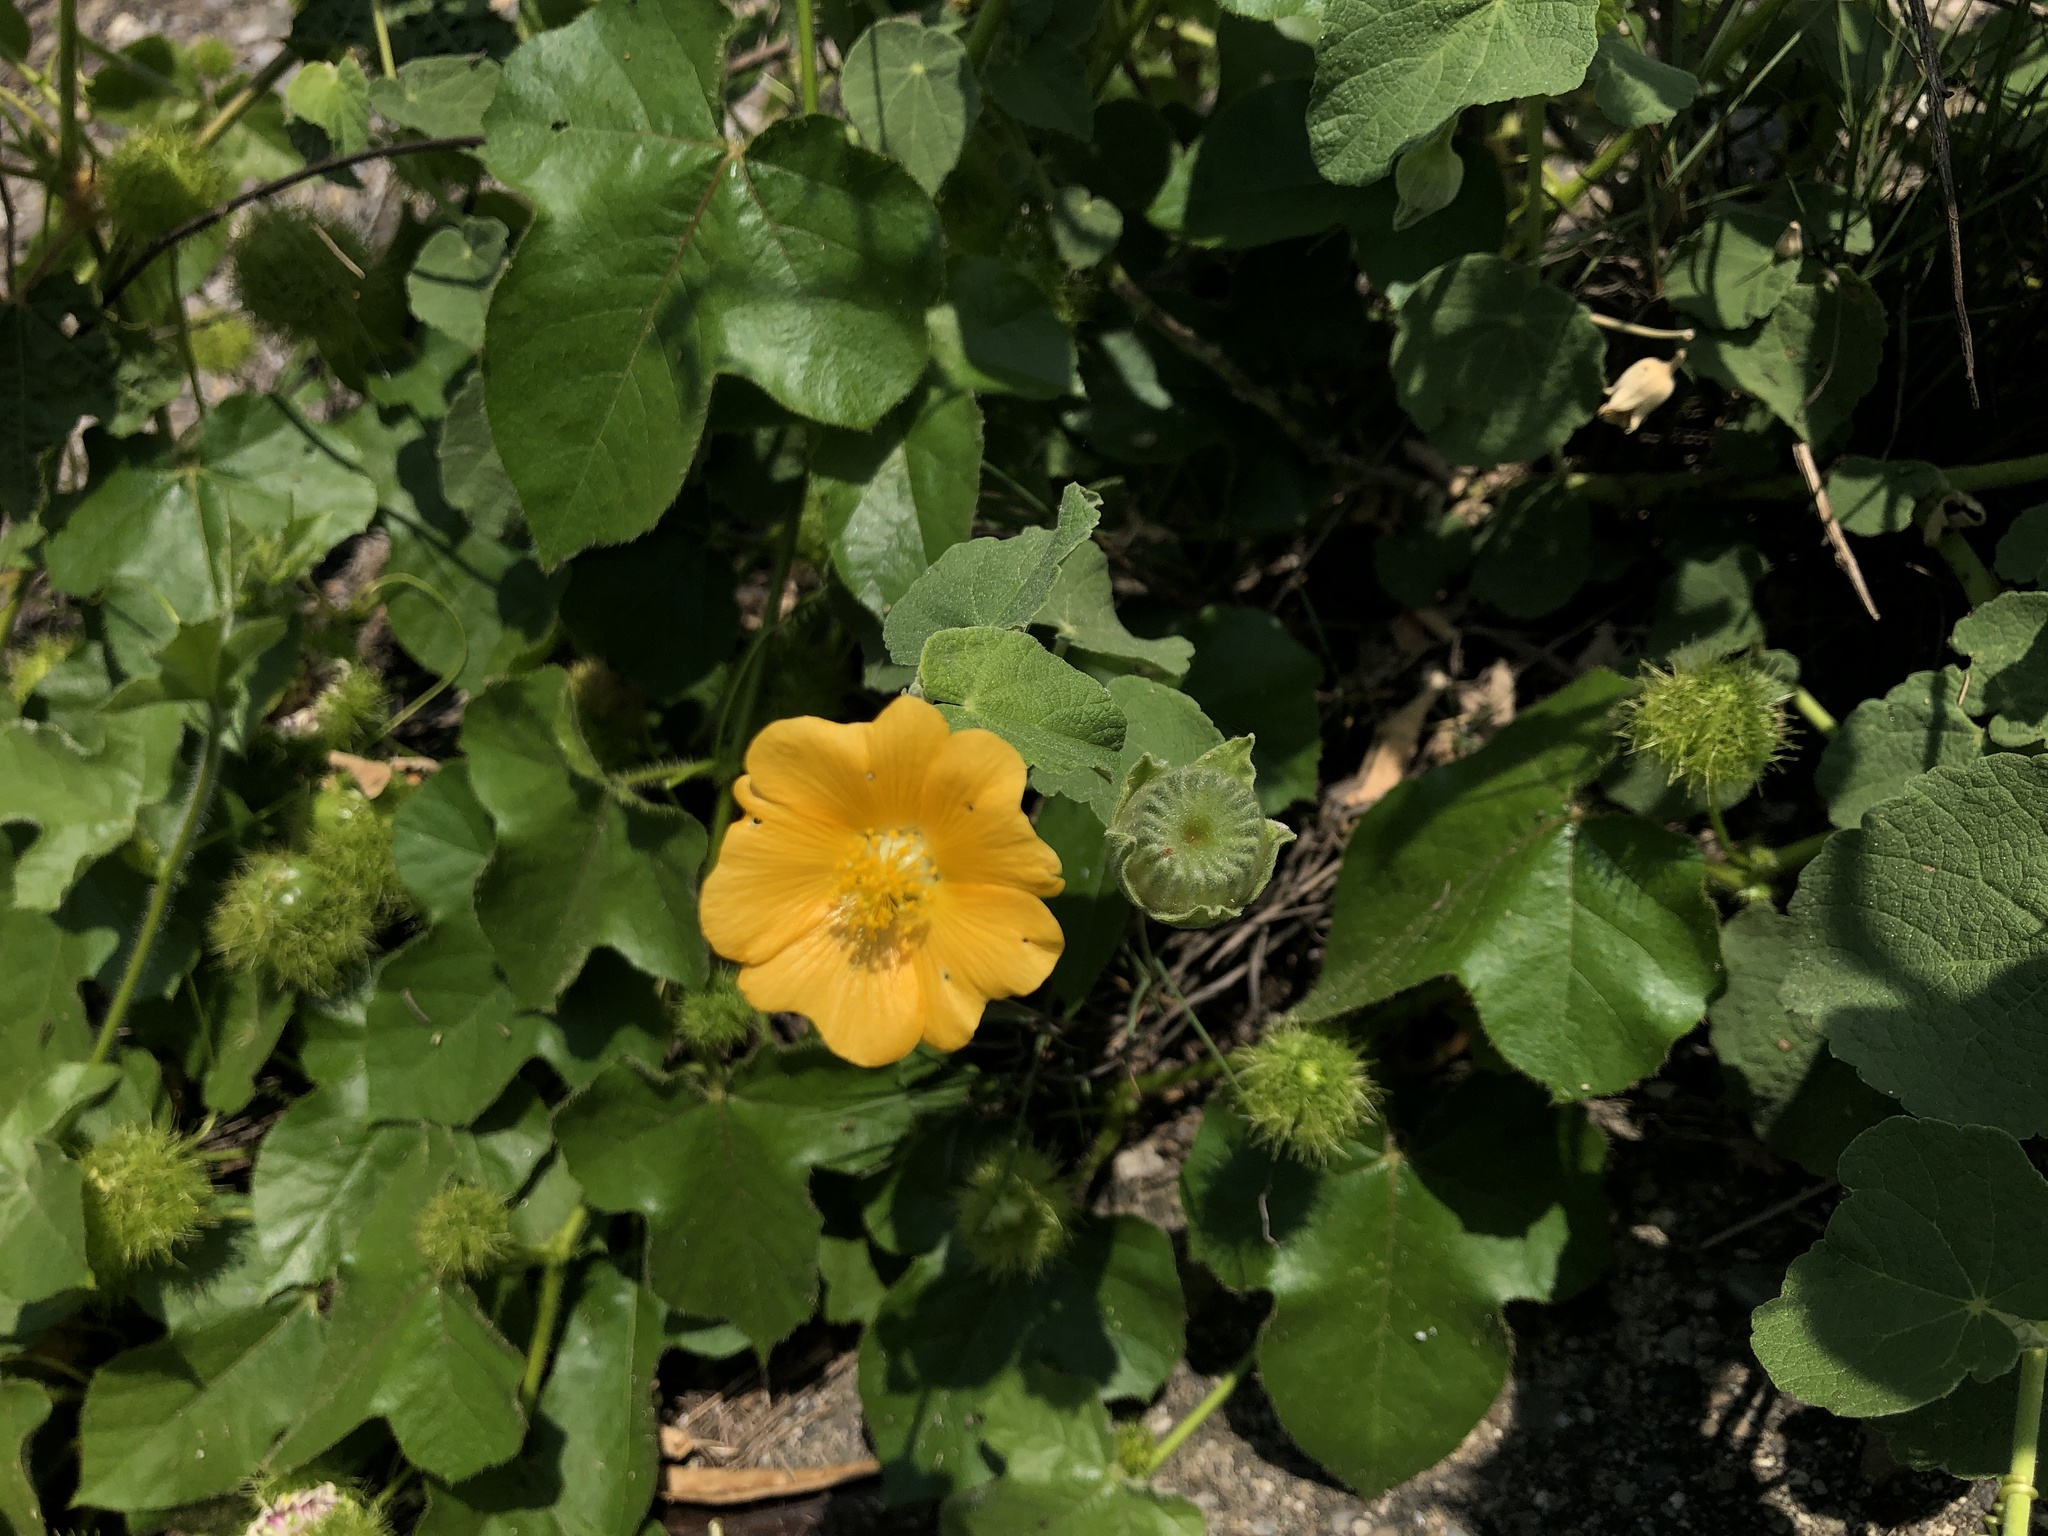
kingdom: Plantae
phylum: Tracheophyta
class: Magnoliopsida
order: Malvales
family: Malvaceae
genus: Abutilon
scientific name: Abutilon indicum
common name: Indian abutilon
